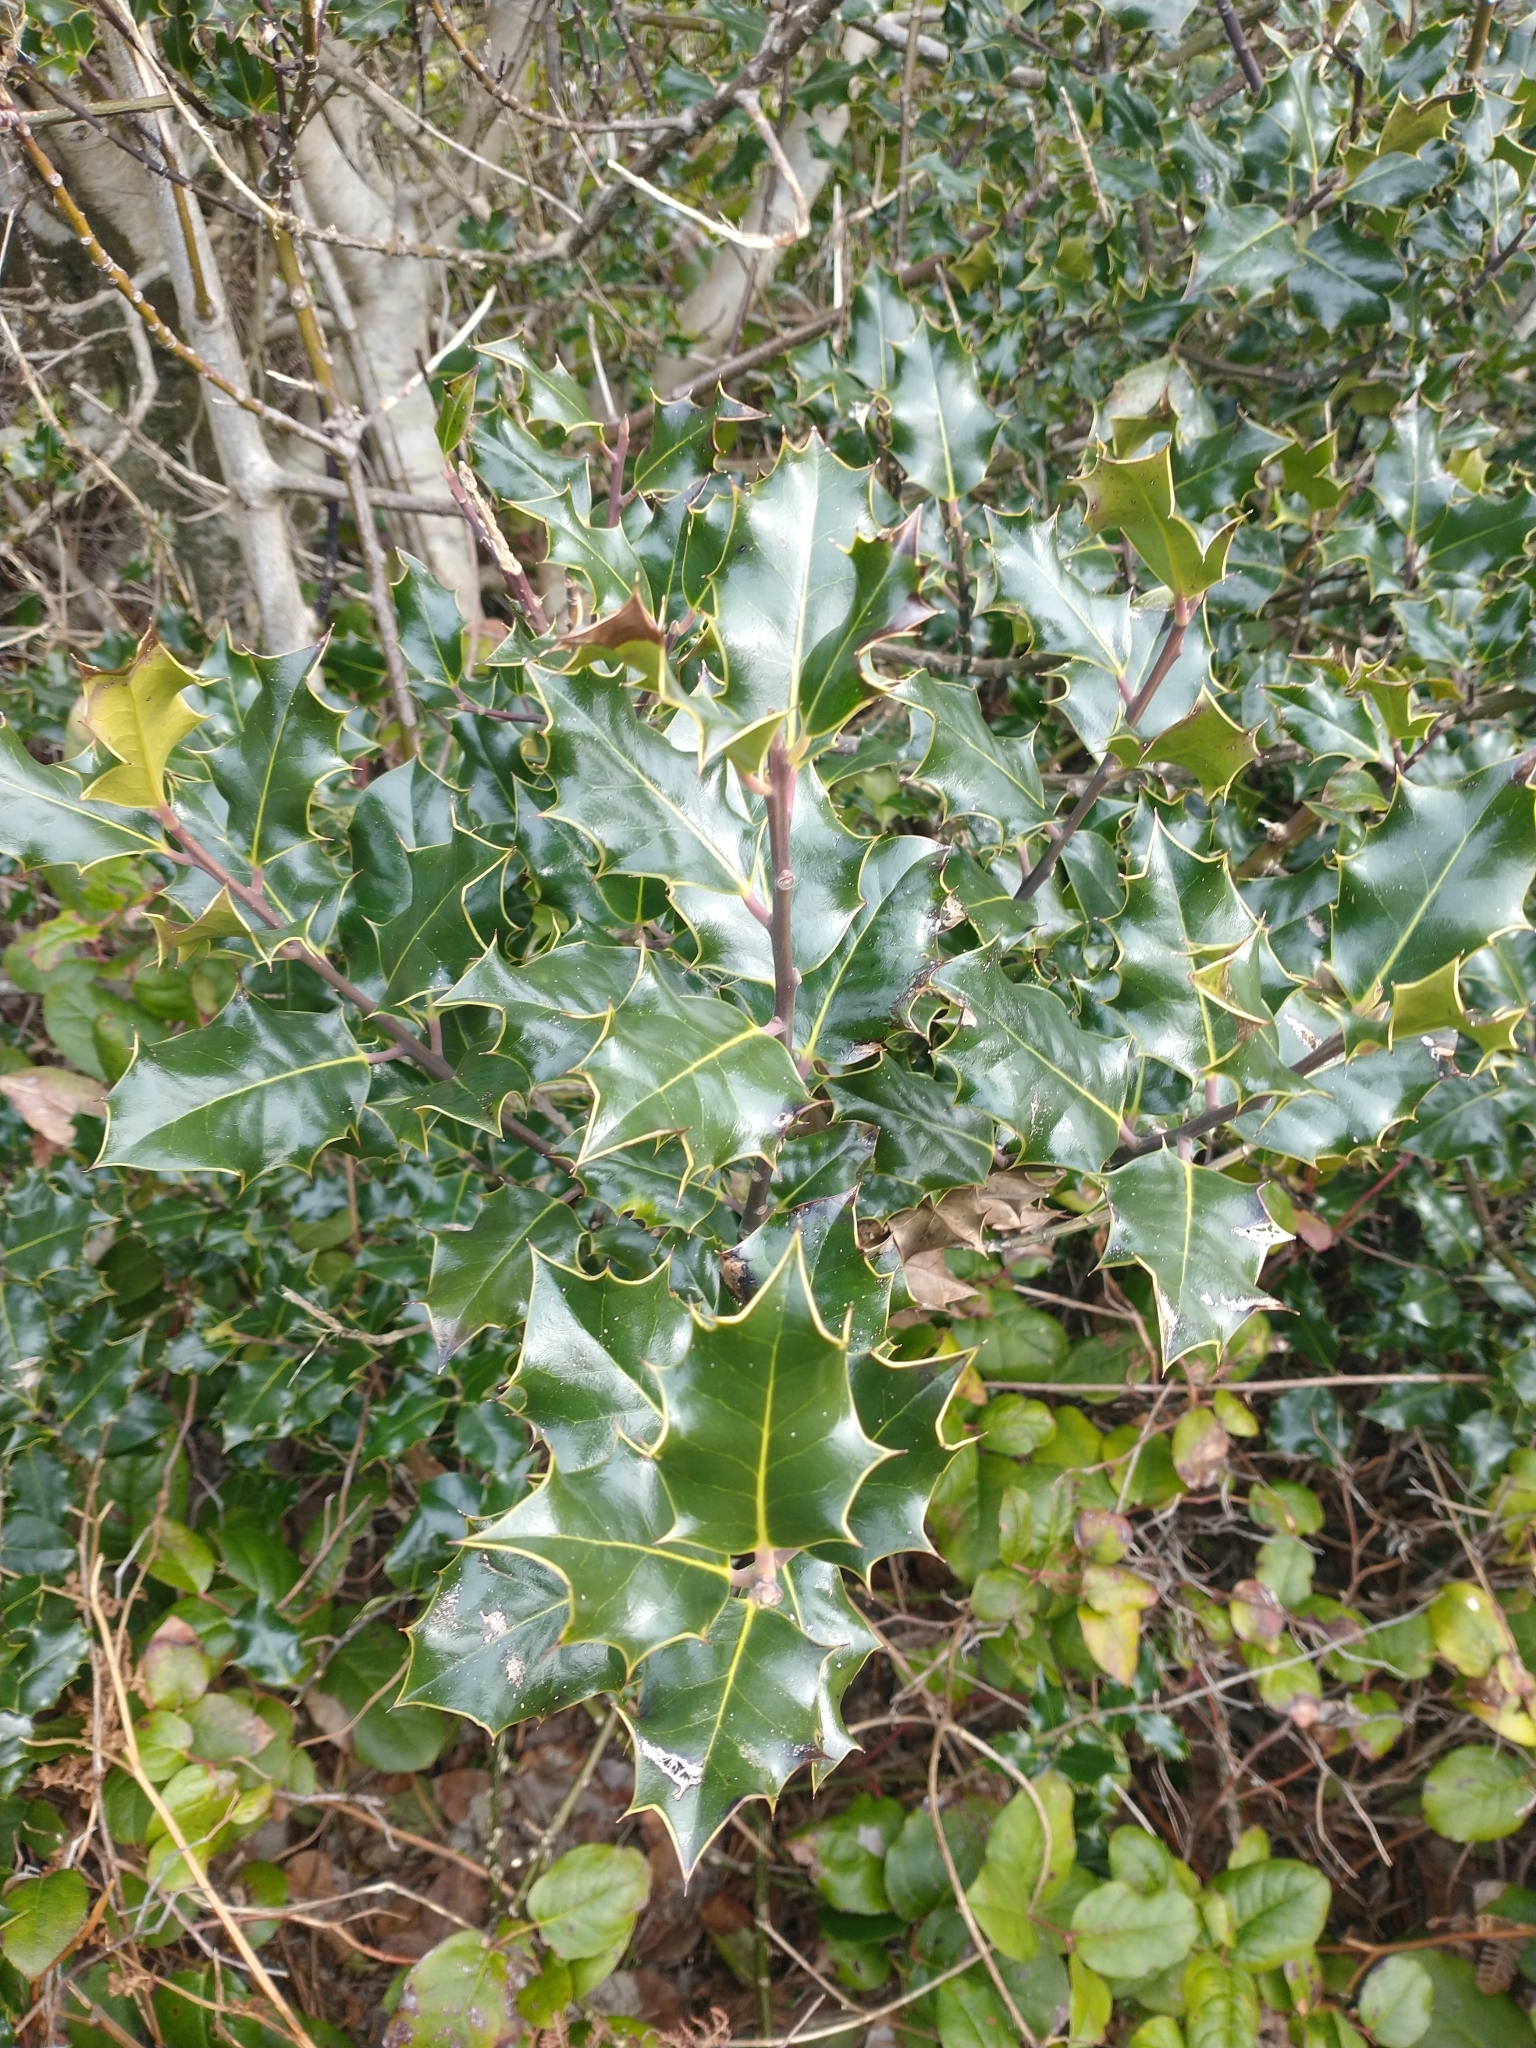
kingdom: Plantae
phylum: Tracheophyta
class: Magnoliopsida
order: Aquifoliales
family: Aquifoliaceae
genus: Ilex
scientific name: Ilex aquifolium
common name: English holly
